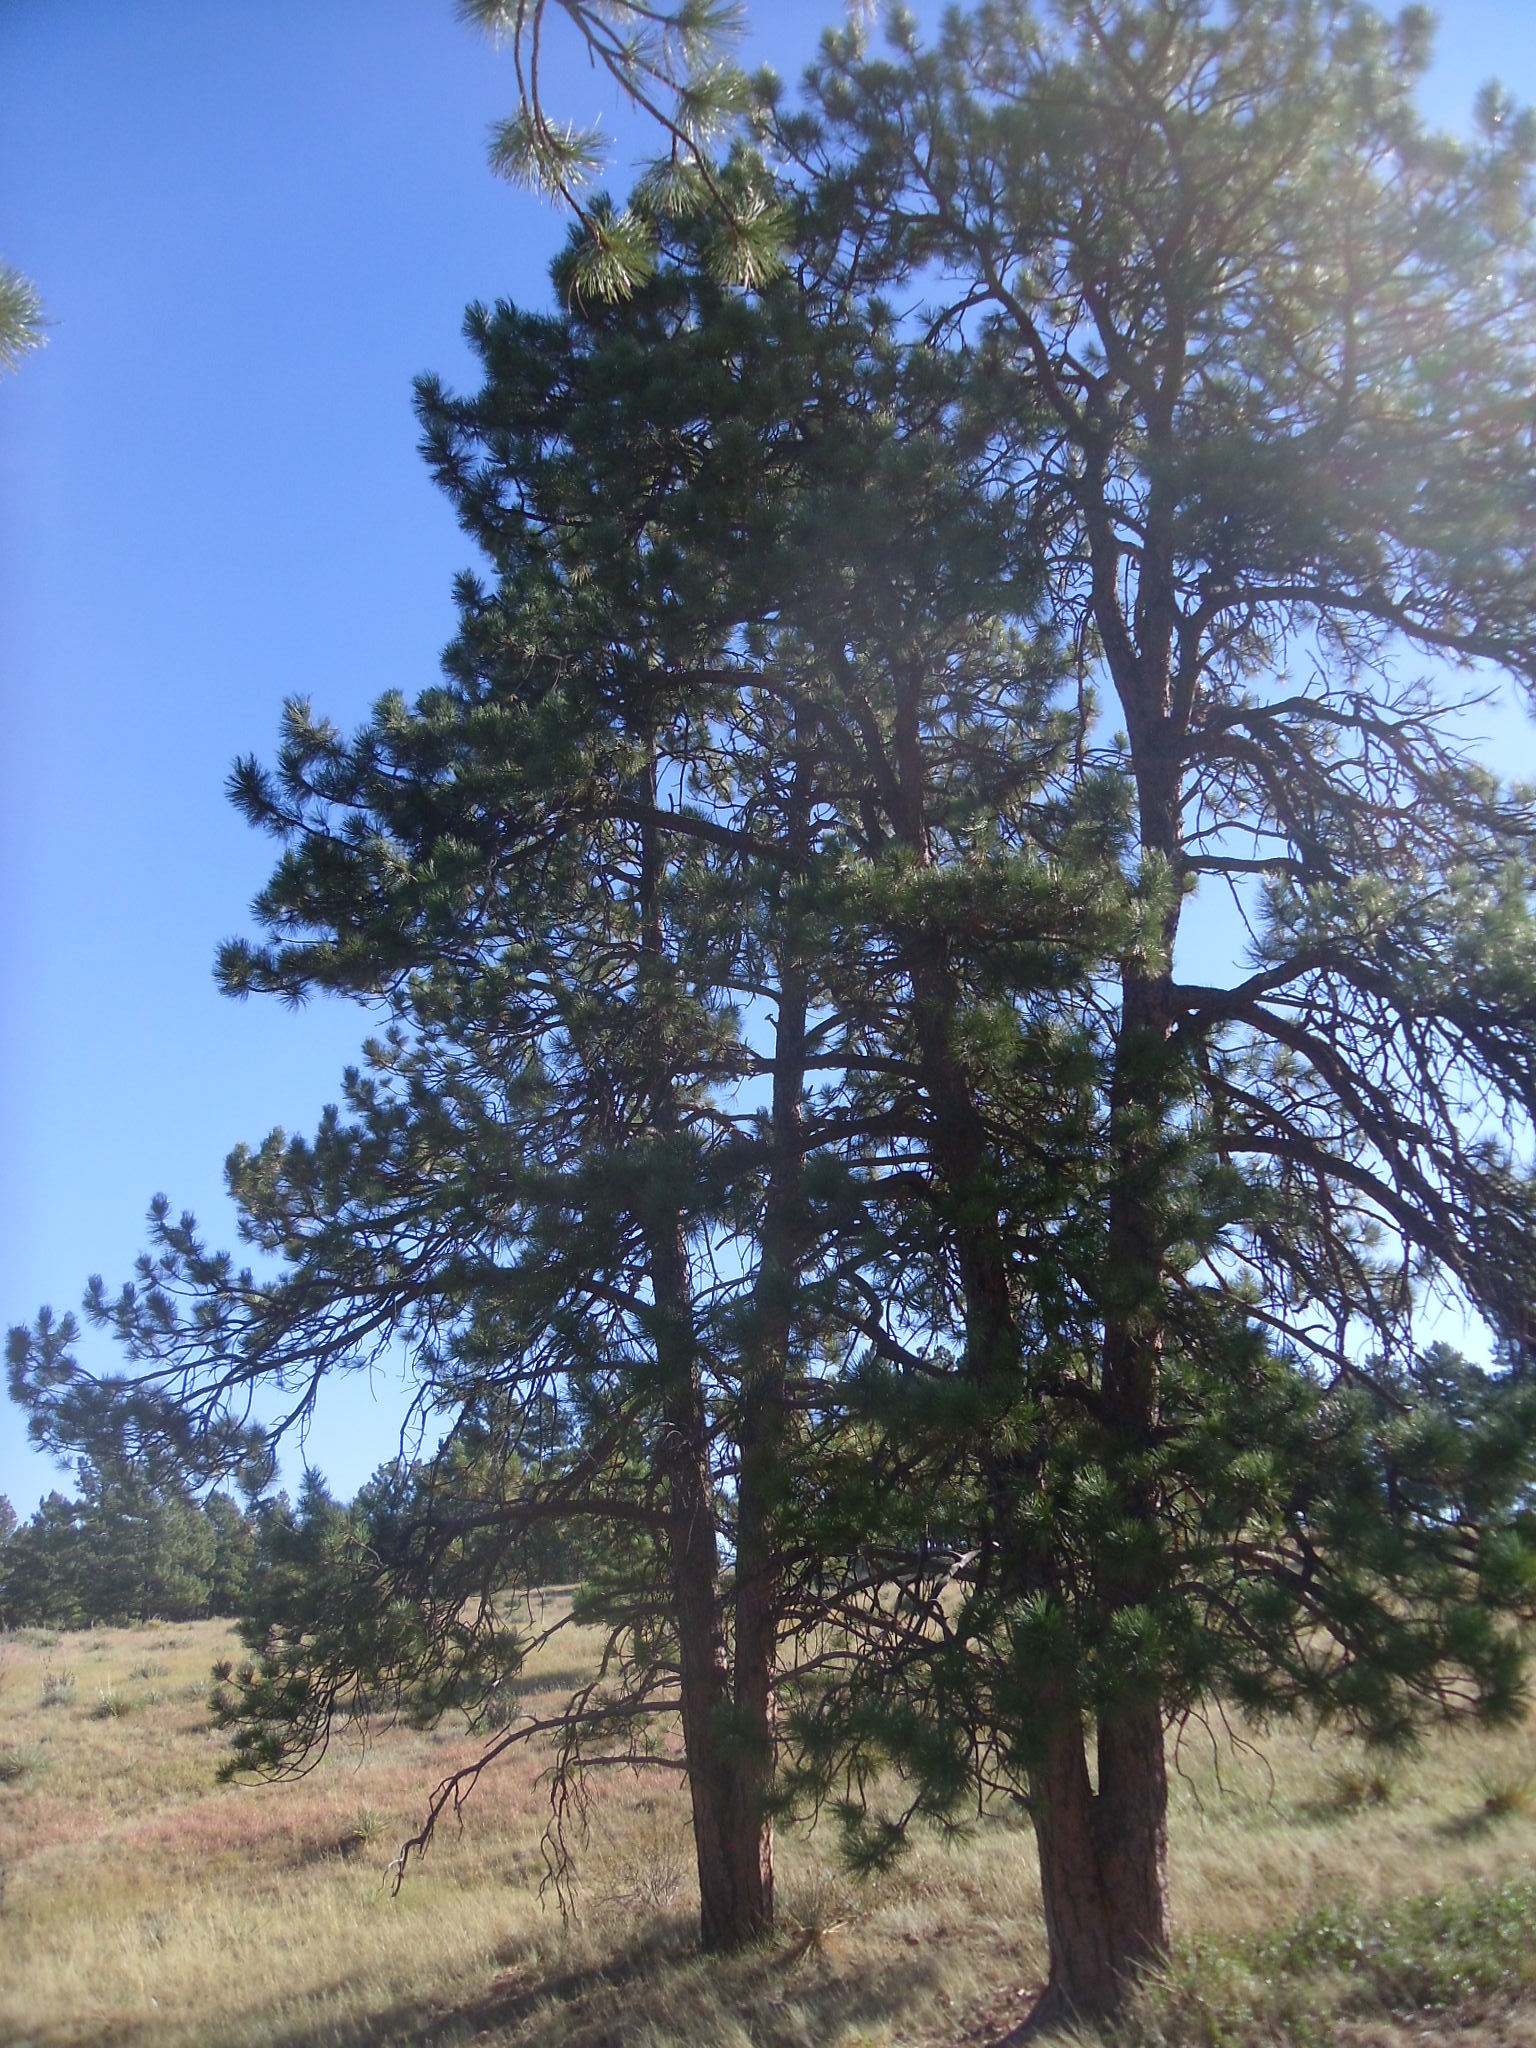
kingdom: Plantae
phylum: Tracheophyta
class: Pinopsida
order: Pinales
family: Pinaceae
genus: Pinus
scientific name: Pinus ponderosa
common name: Western yellow-pine
